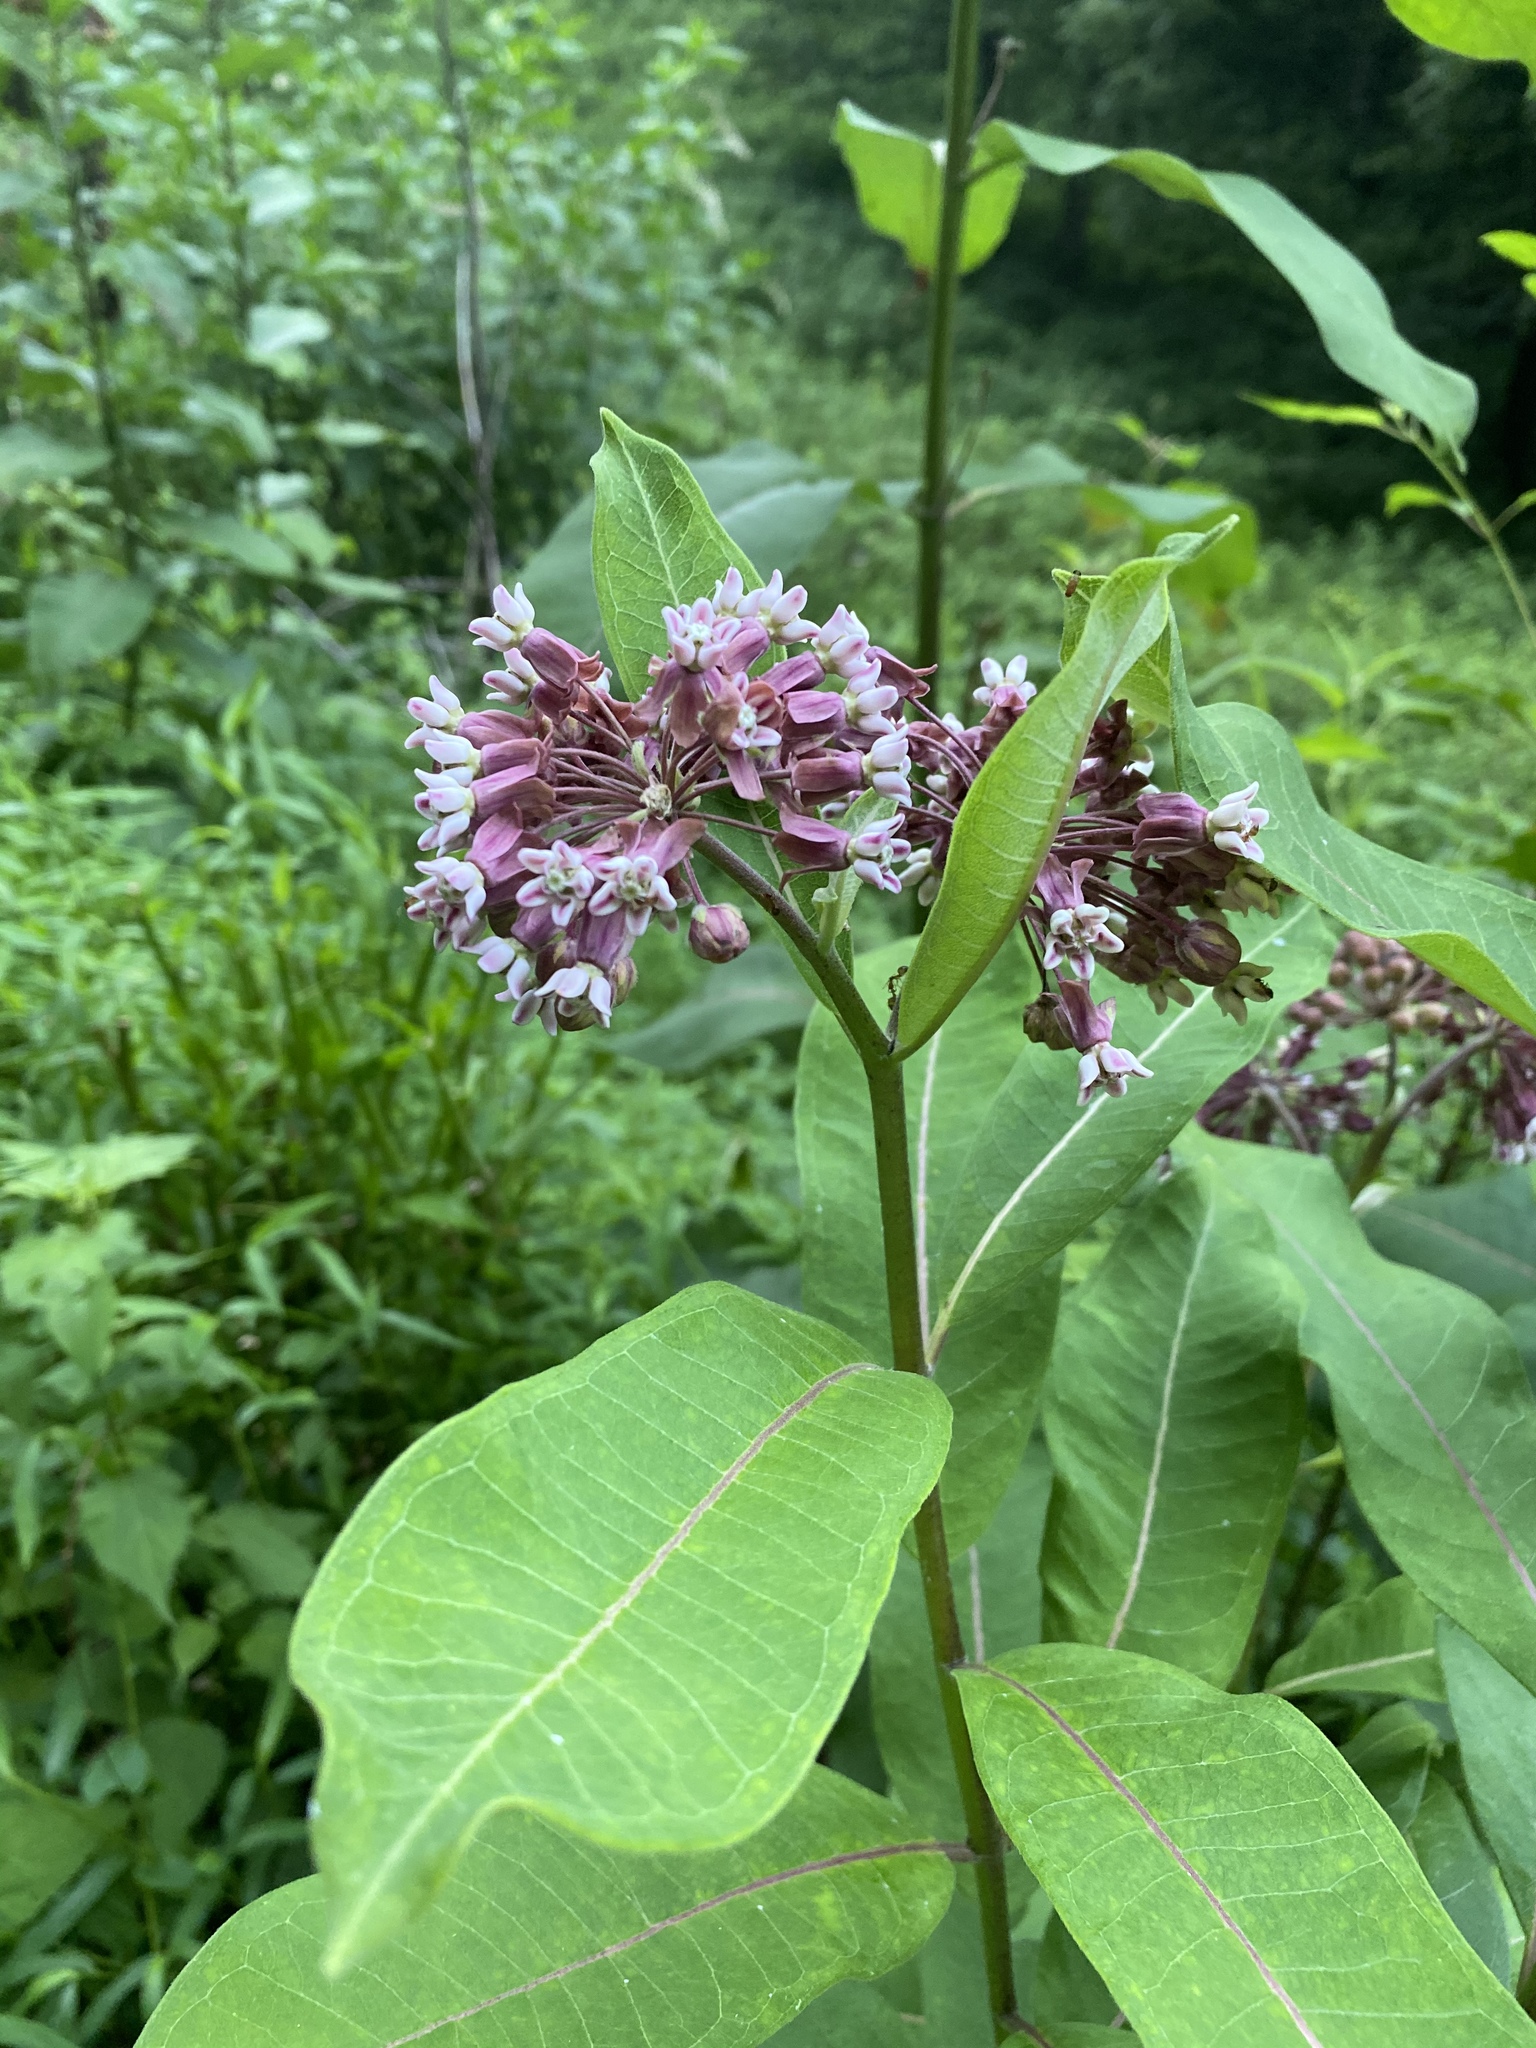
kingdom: Plantae
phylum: Tracheophyta
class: Magnoliopsida
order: Gentianales
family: Apocynaceae
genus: Asclepias
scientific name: Asclepias syriaca
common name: Common milkweed
